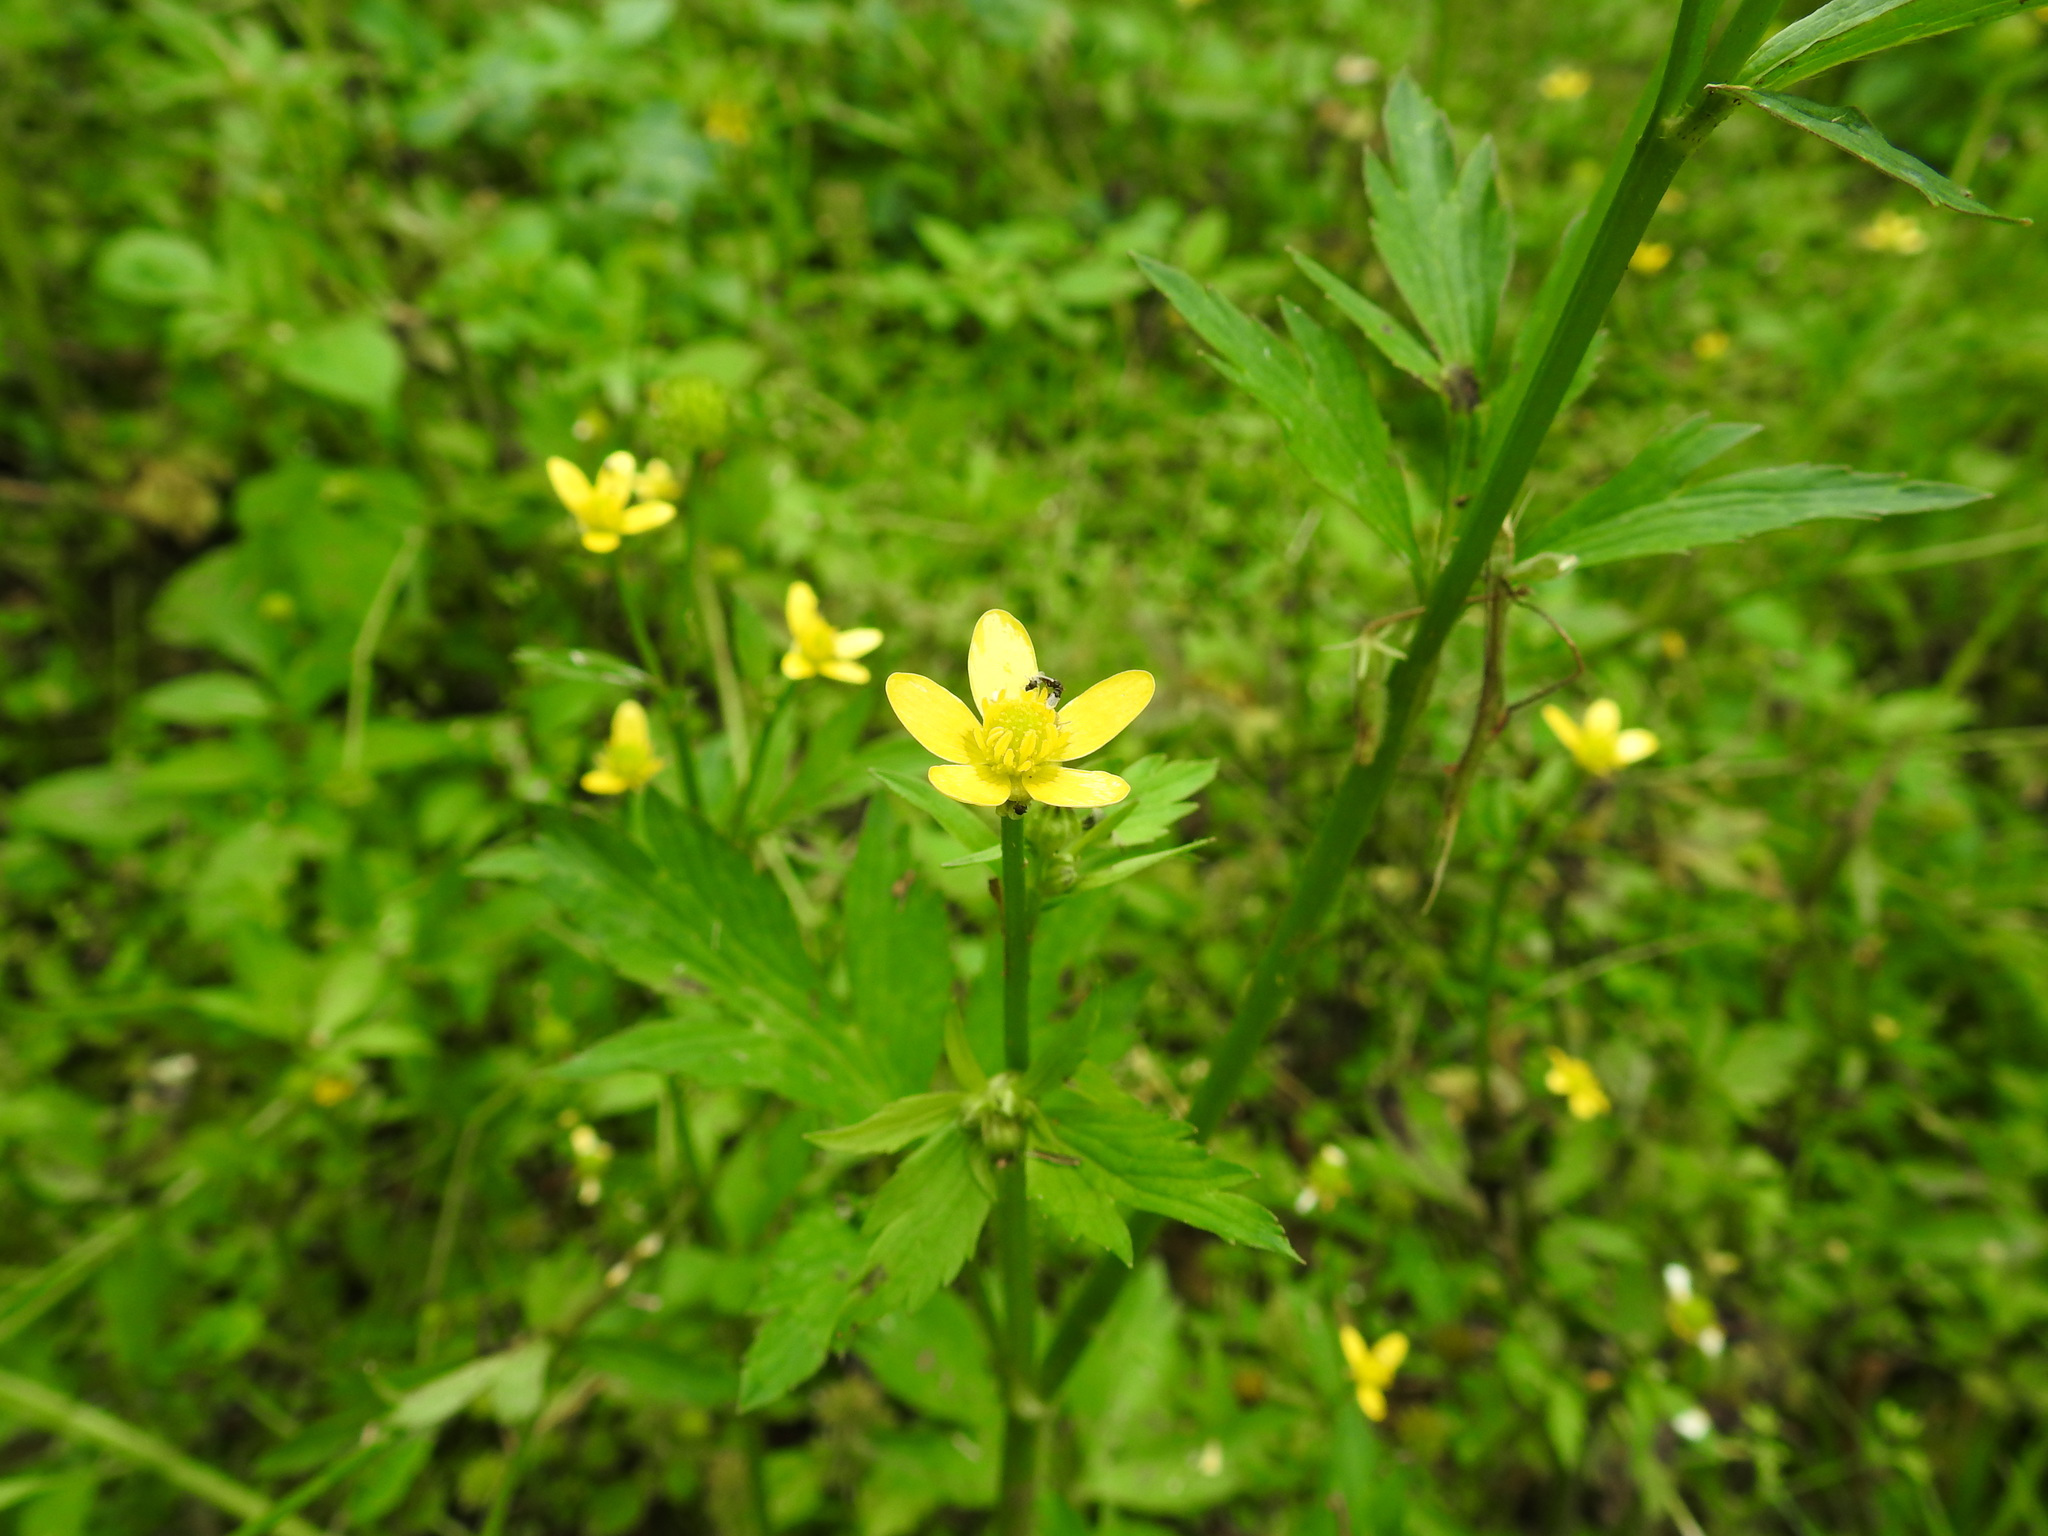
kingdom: Plantae
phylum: Tracheophyta
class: Magnoliopsida
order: Ranunculales
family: Ranunculaceae
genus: Ranunculus
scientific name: Ranunculus cantoniensis
